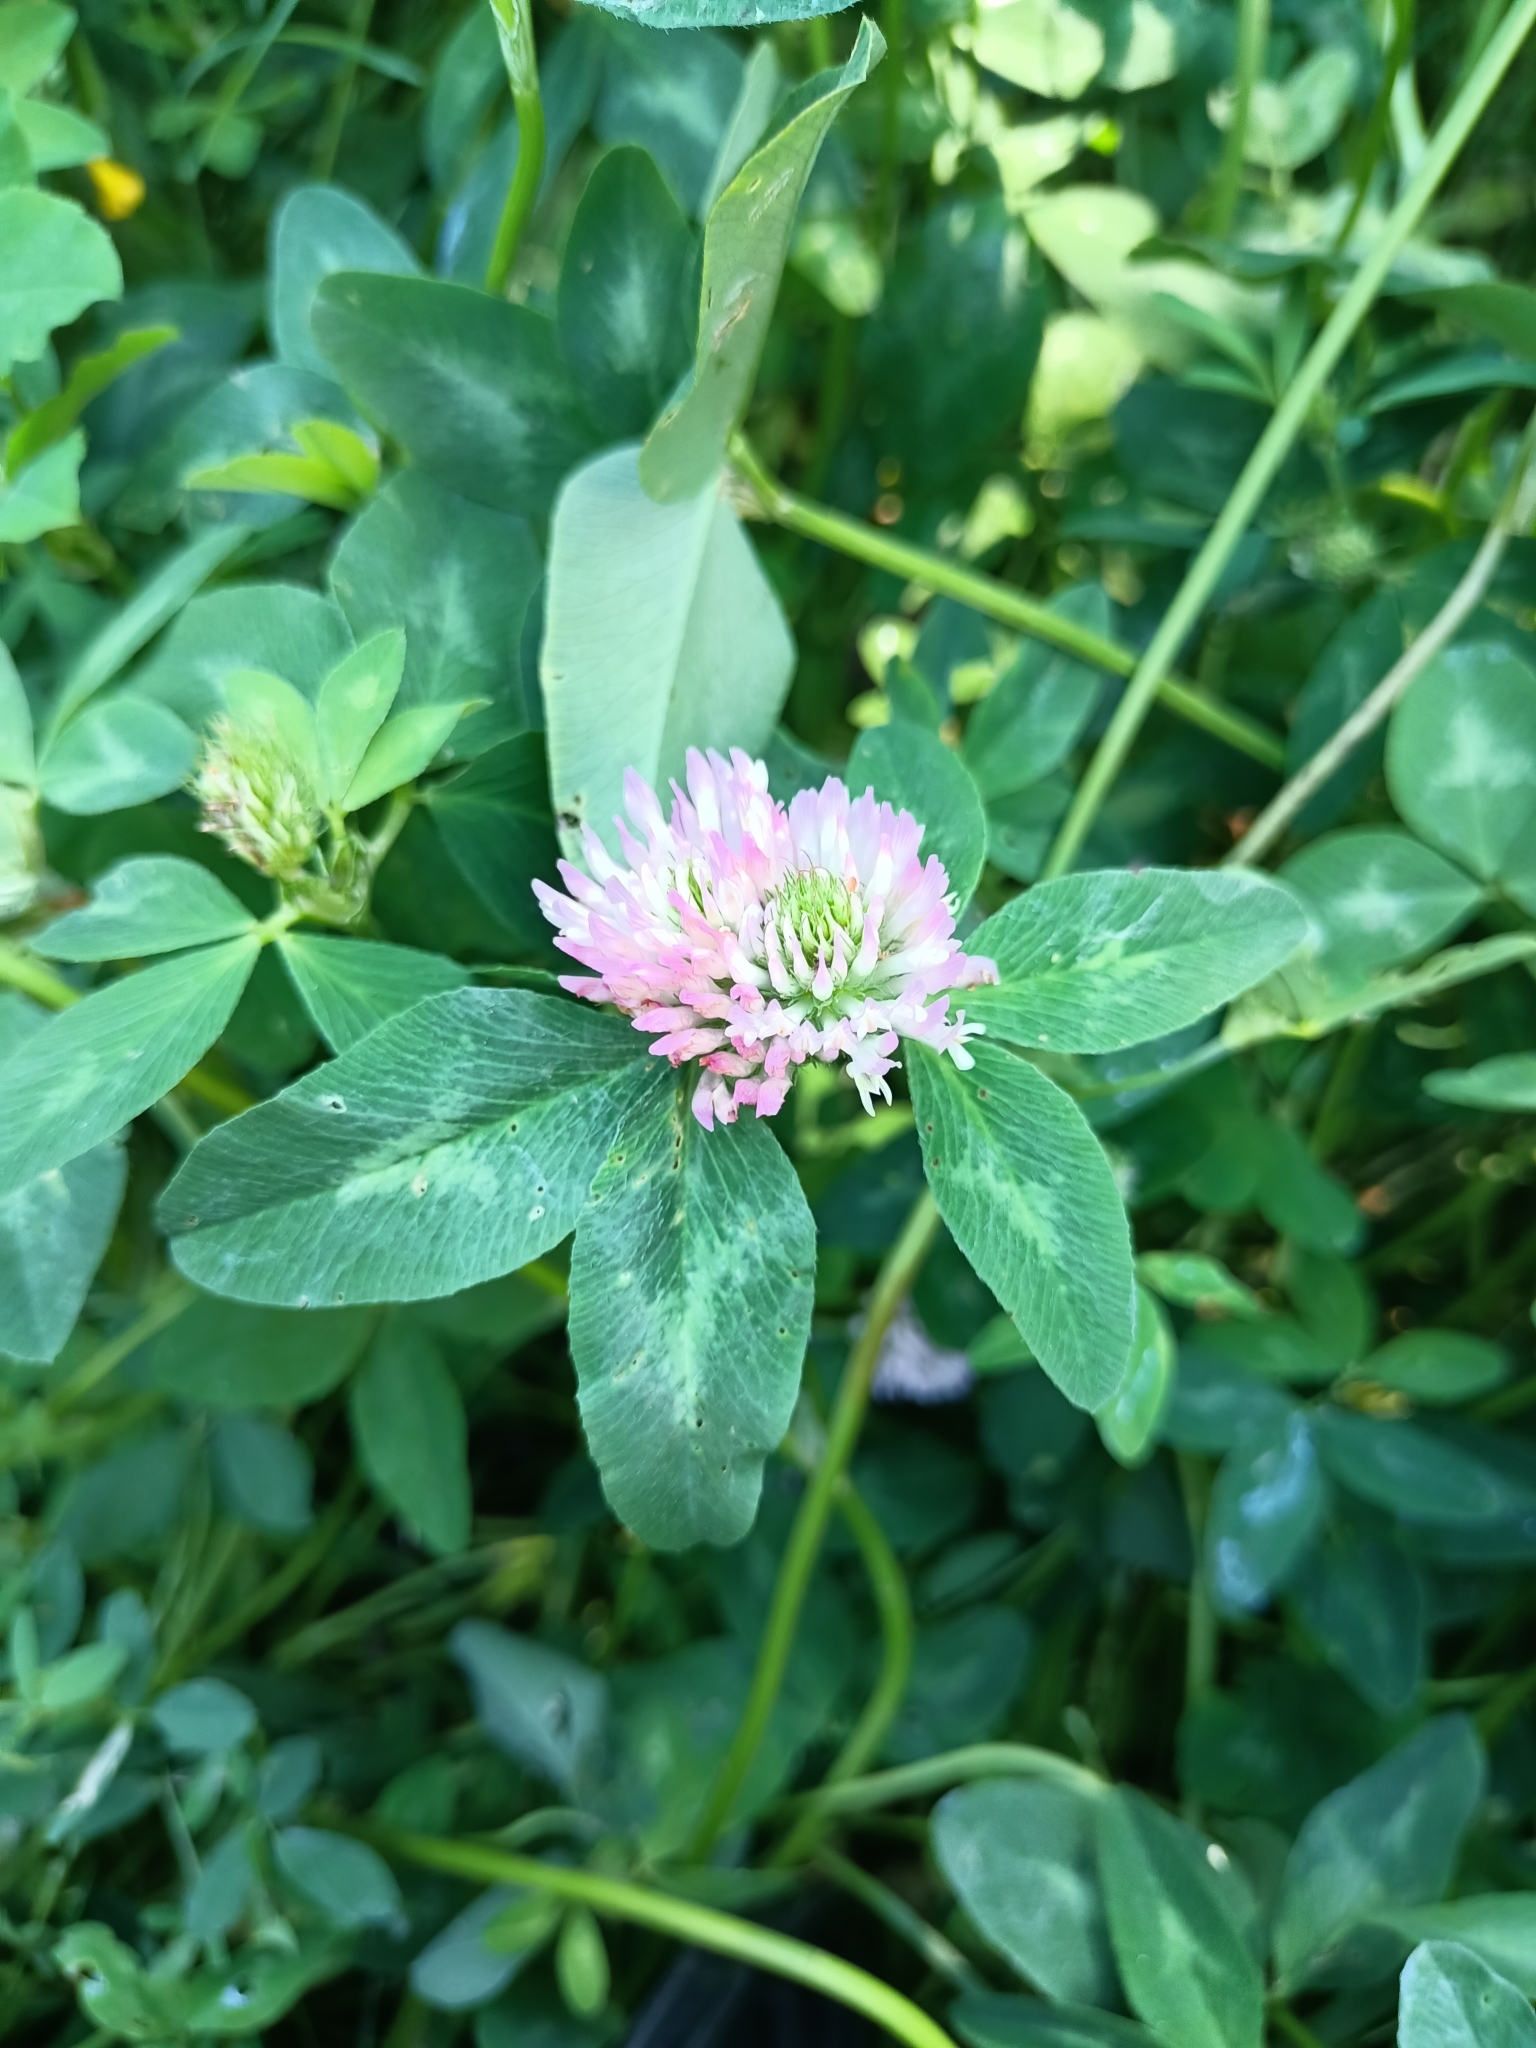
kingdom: Plantae
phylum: Tracheophyta
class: Magnoliopsida
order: Fabales
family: Fabaceae
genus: Trifolium
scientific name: Trifolium pratense
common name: Red clover
